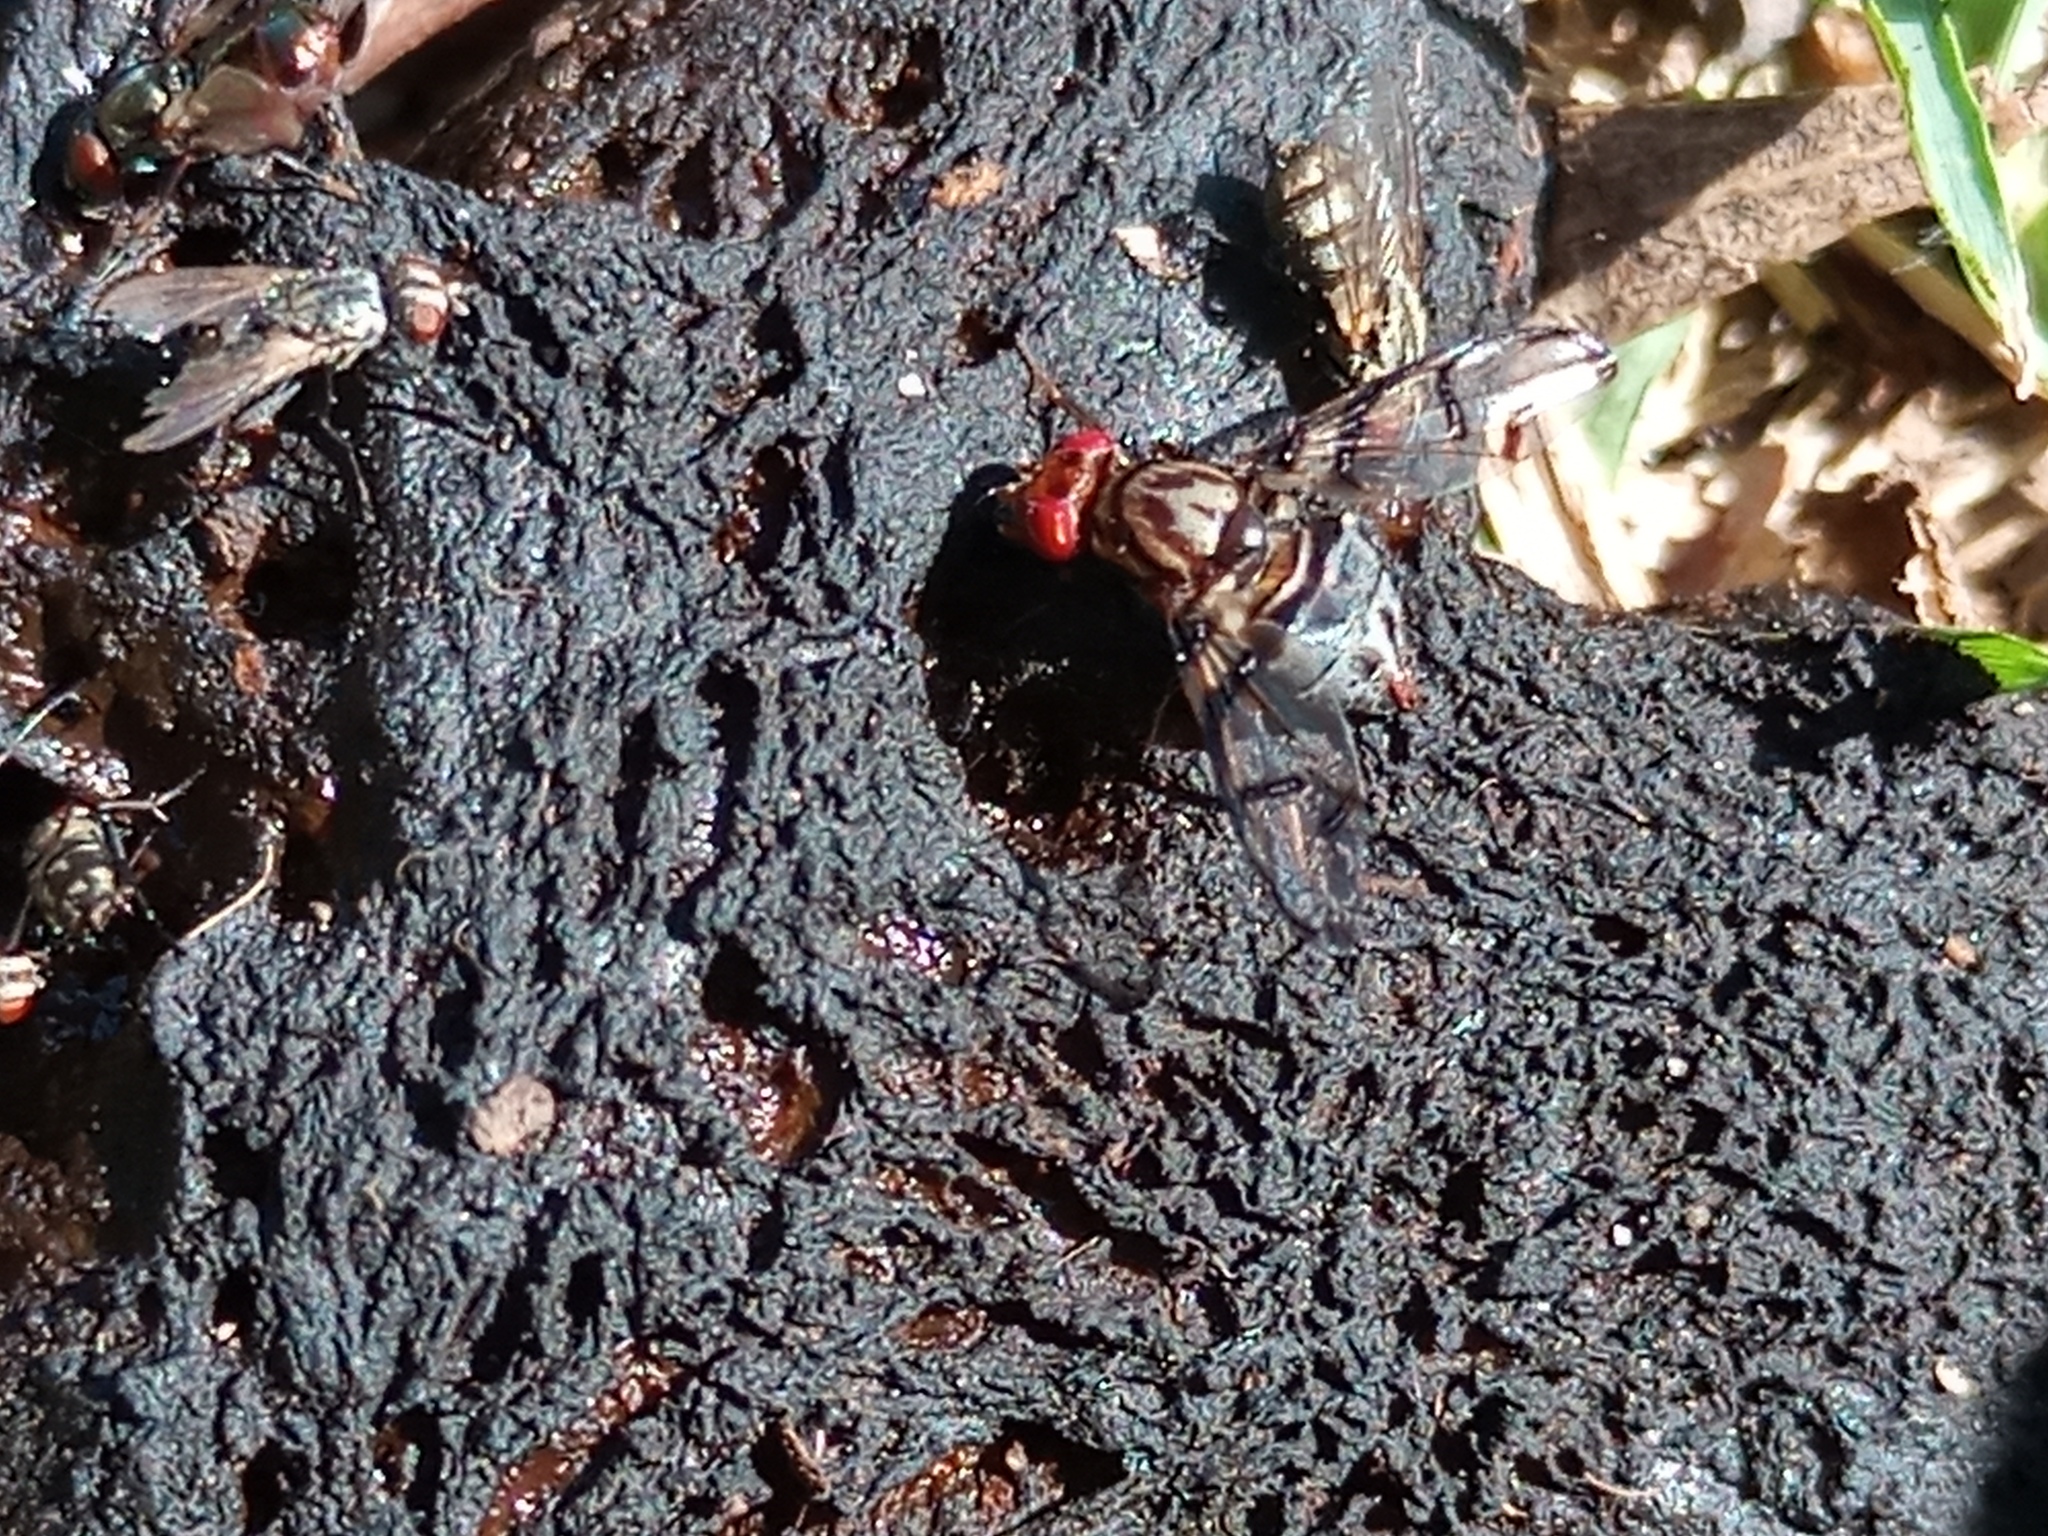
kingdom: Animalia
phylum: Arthropoda
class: Insecta
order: Diptera
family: Ulidiidae
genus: Neomyennis
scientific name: Neomyennis zebra
